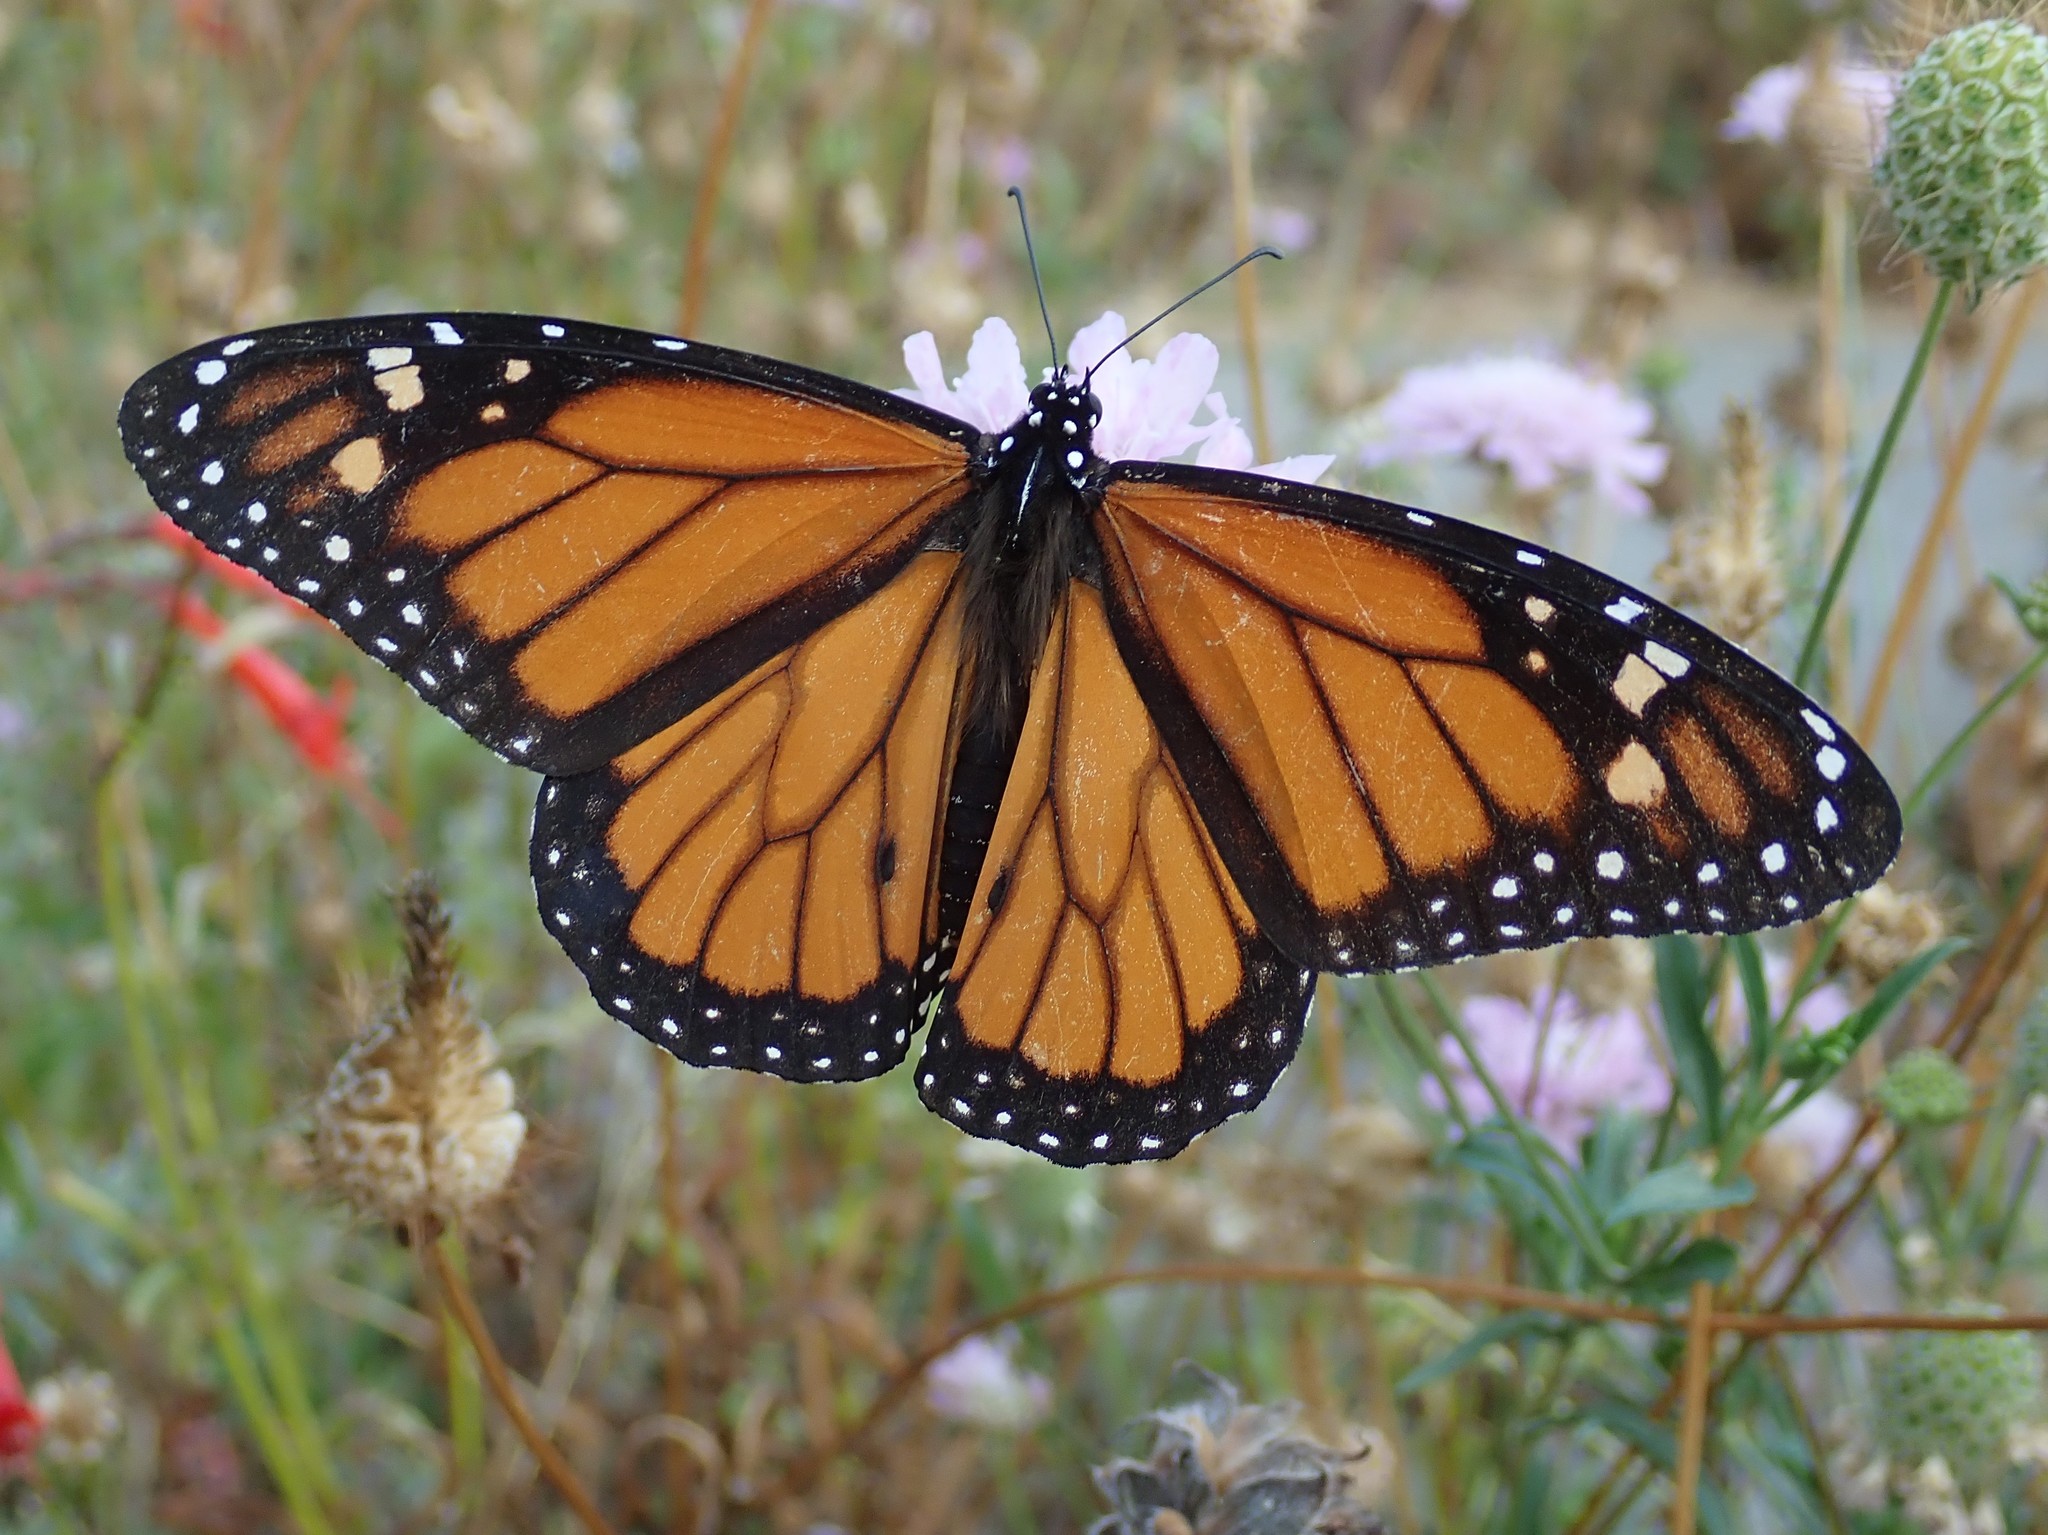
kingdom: Animalia
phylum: Arthropoda
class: Insecta
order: Lepidoptera
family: Nymphalidae
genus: Danaus
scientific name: Danaus plexippus
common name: Monarch
